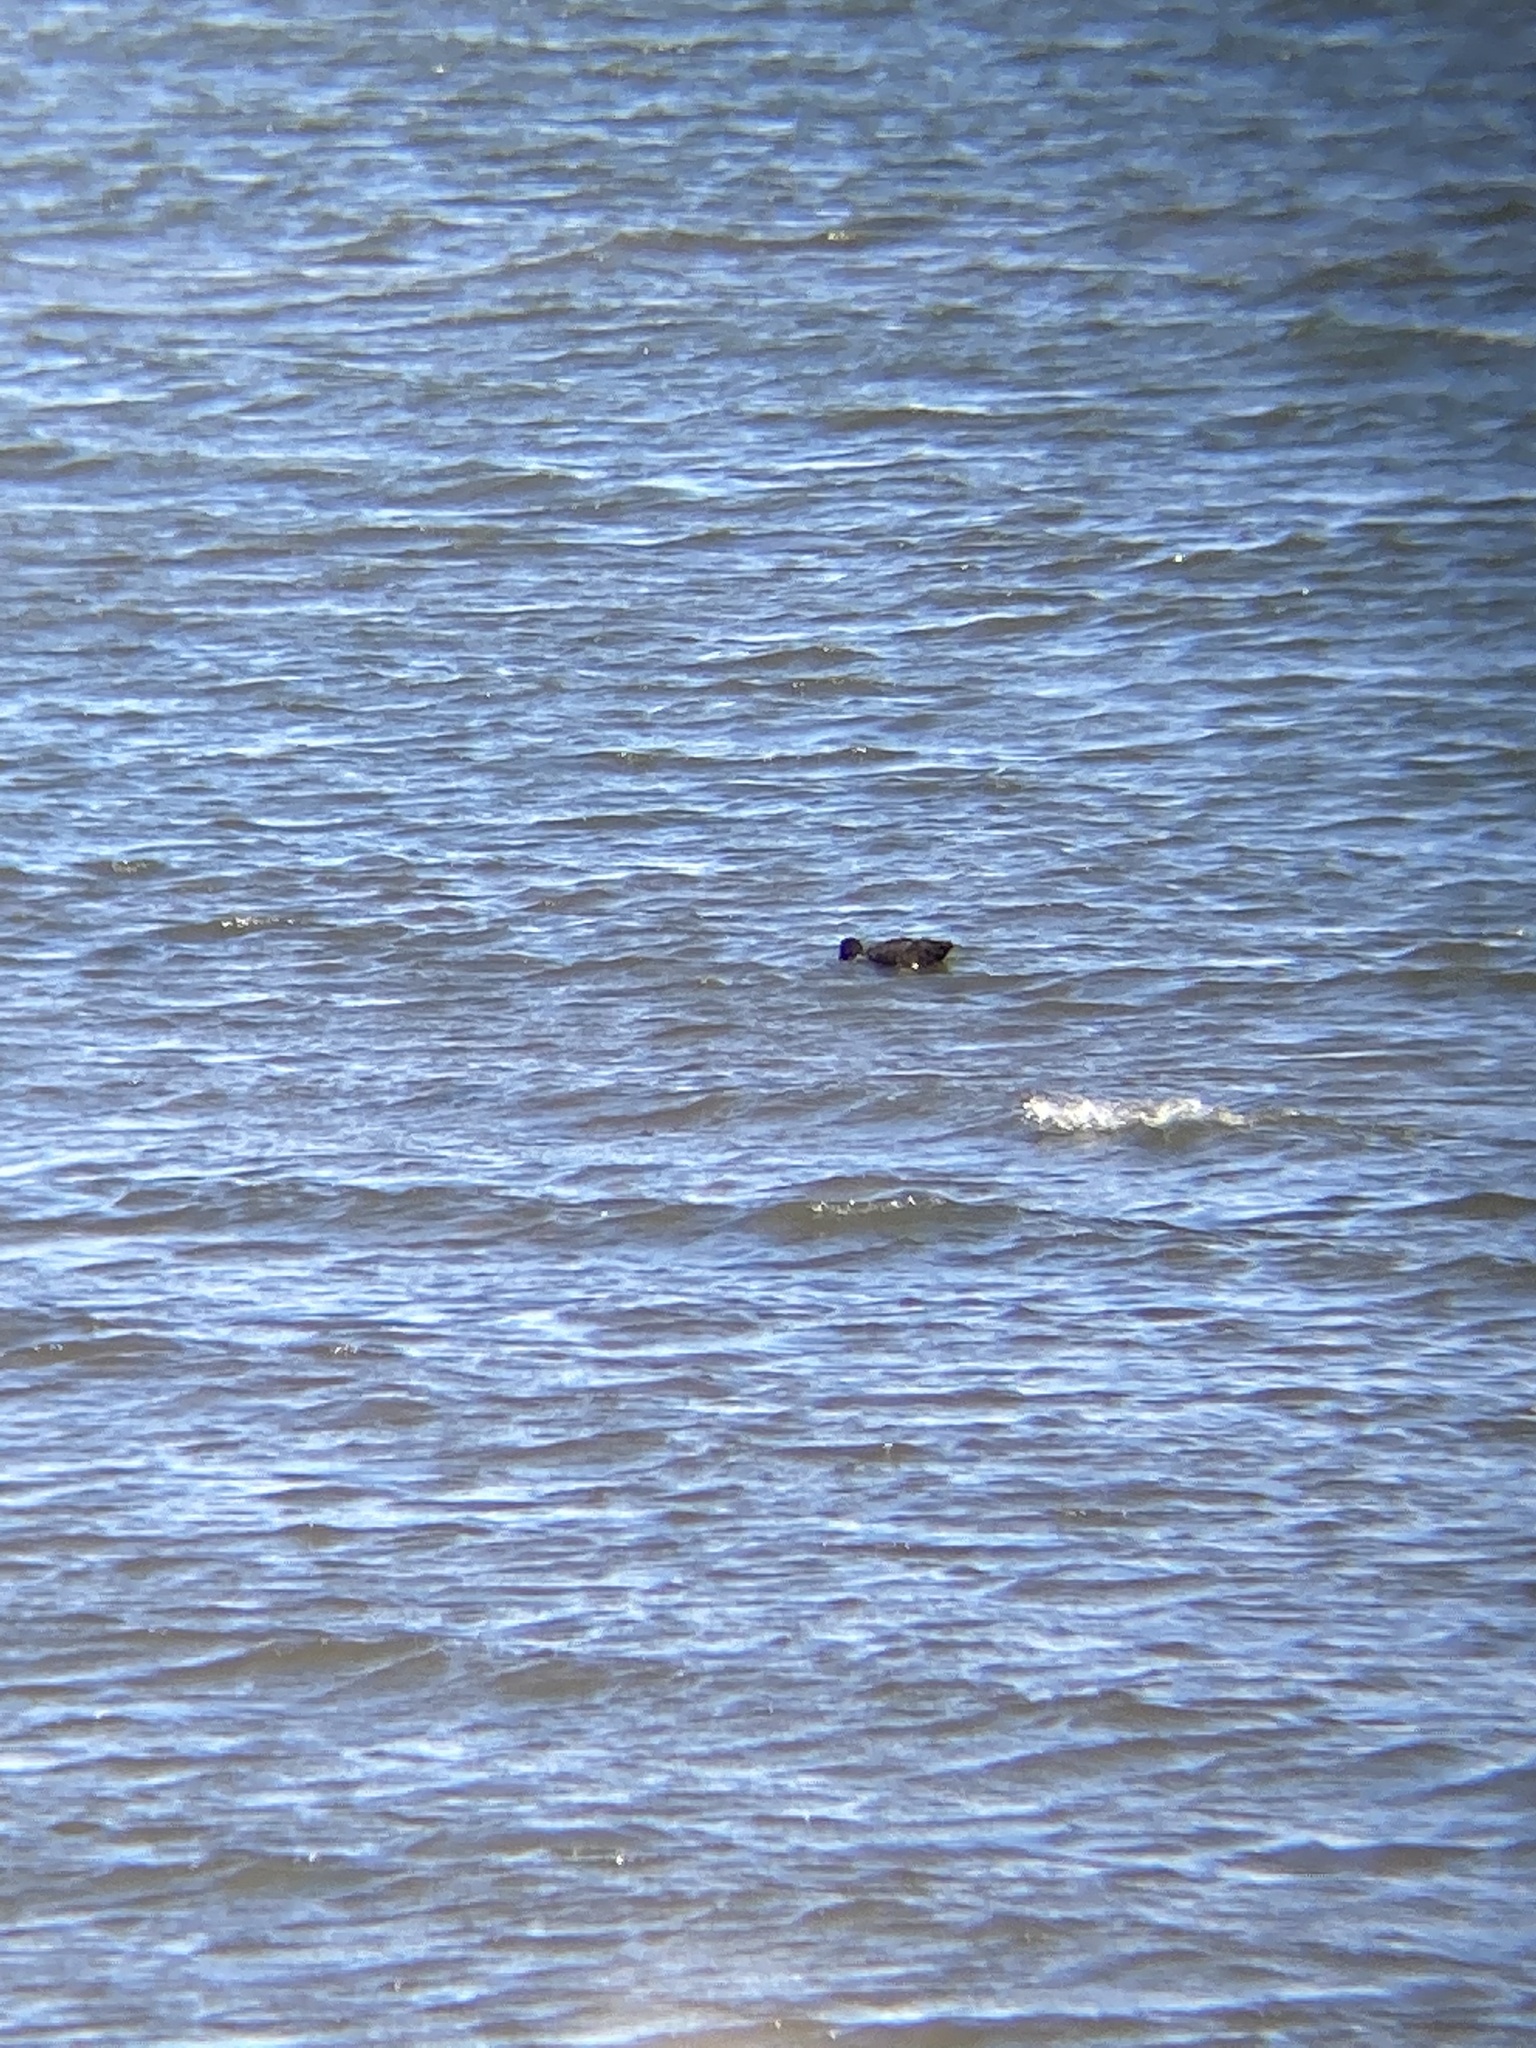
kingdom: Animalia
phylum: Chordata
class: Aves
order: Anseriformes
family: Anatidae
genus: Somateria
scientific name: Somateria mollissima
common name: Common eider
